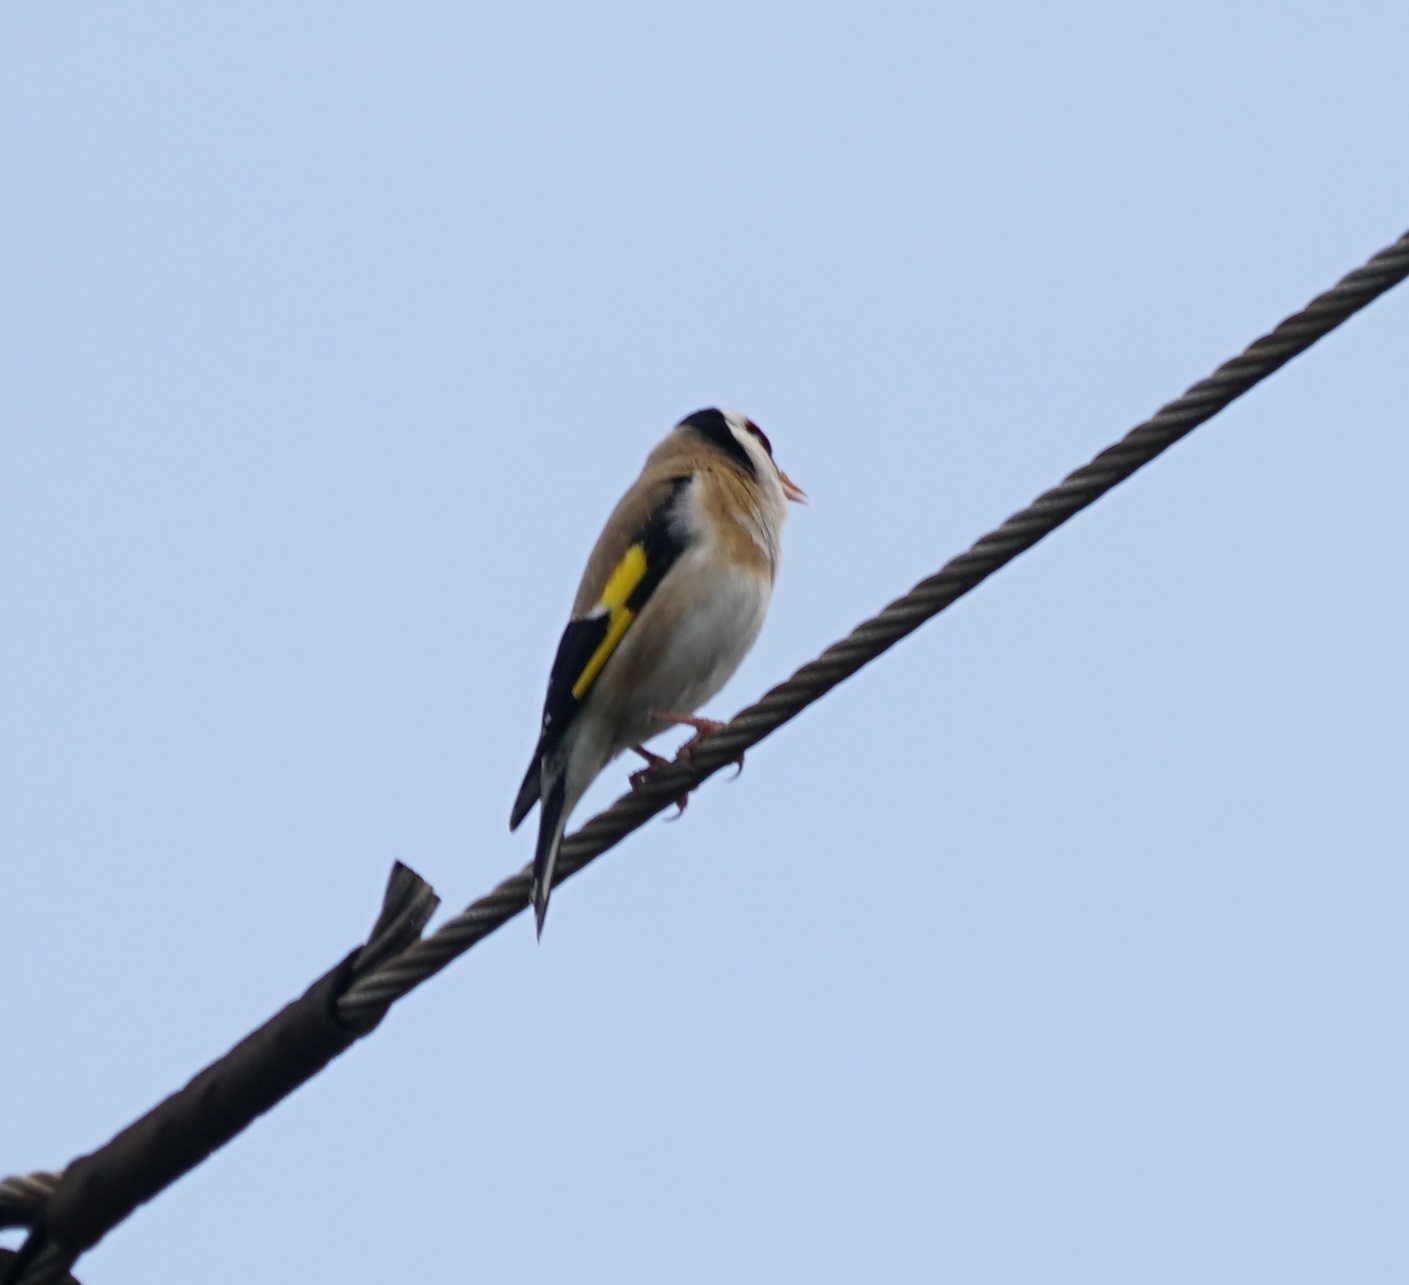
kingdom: Animalia
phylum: Chordata
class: Aves
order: Passeriformes
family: Fringillidae
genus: Carduelis
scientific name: Carduelis carduelis
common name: European goldfinch
